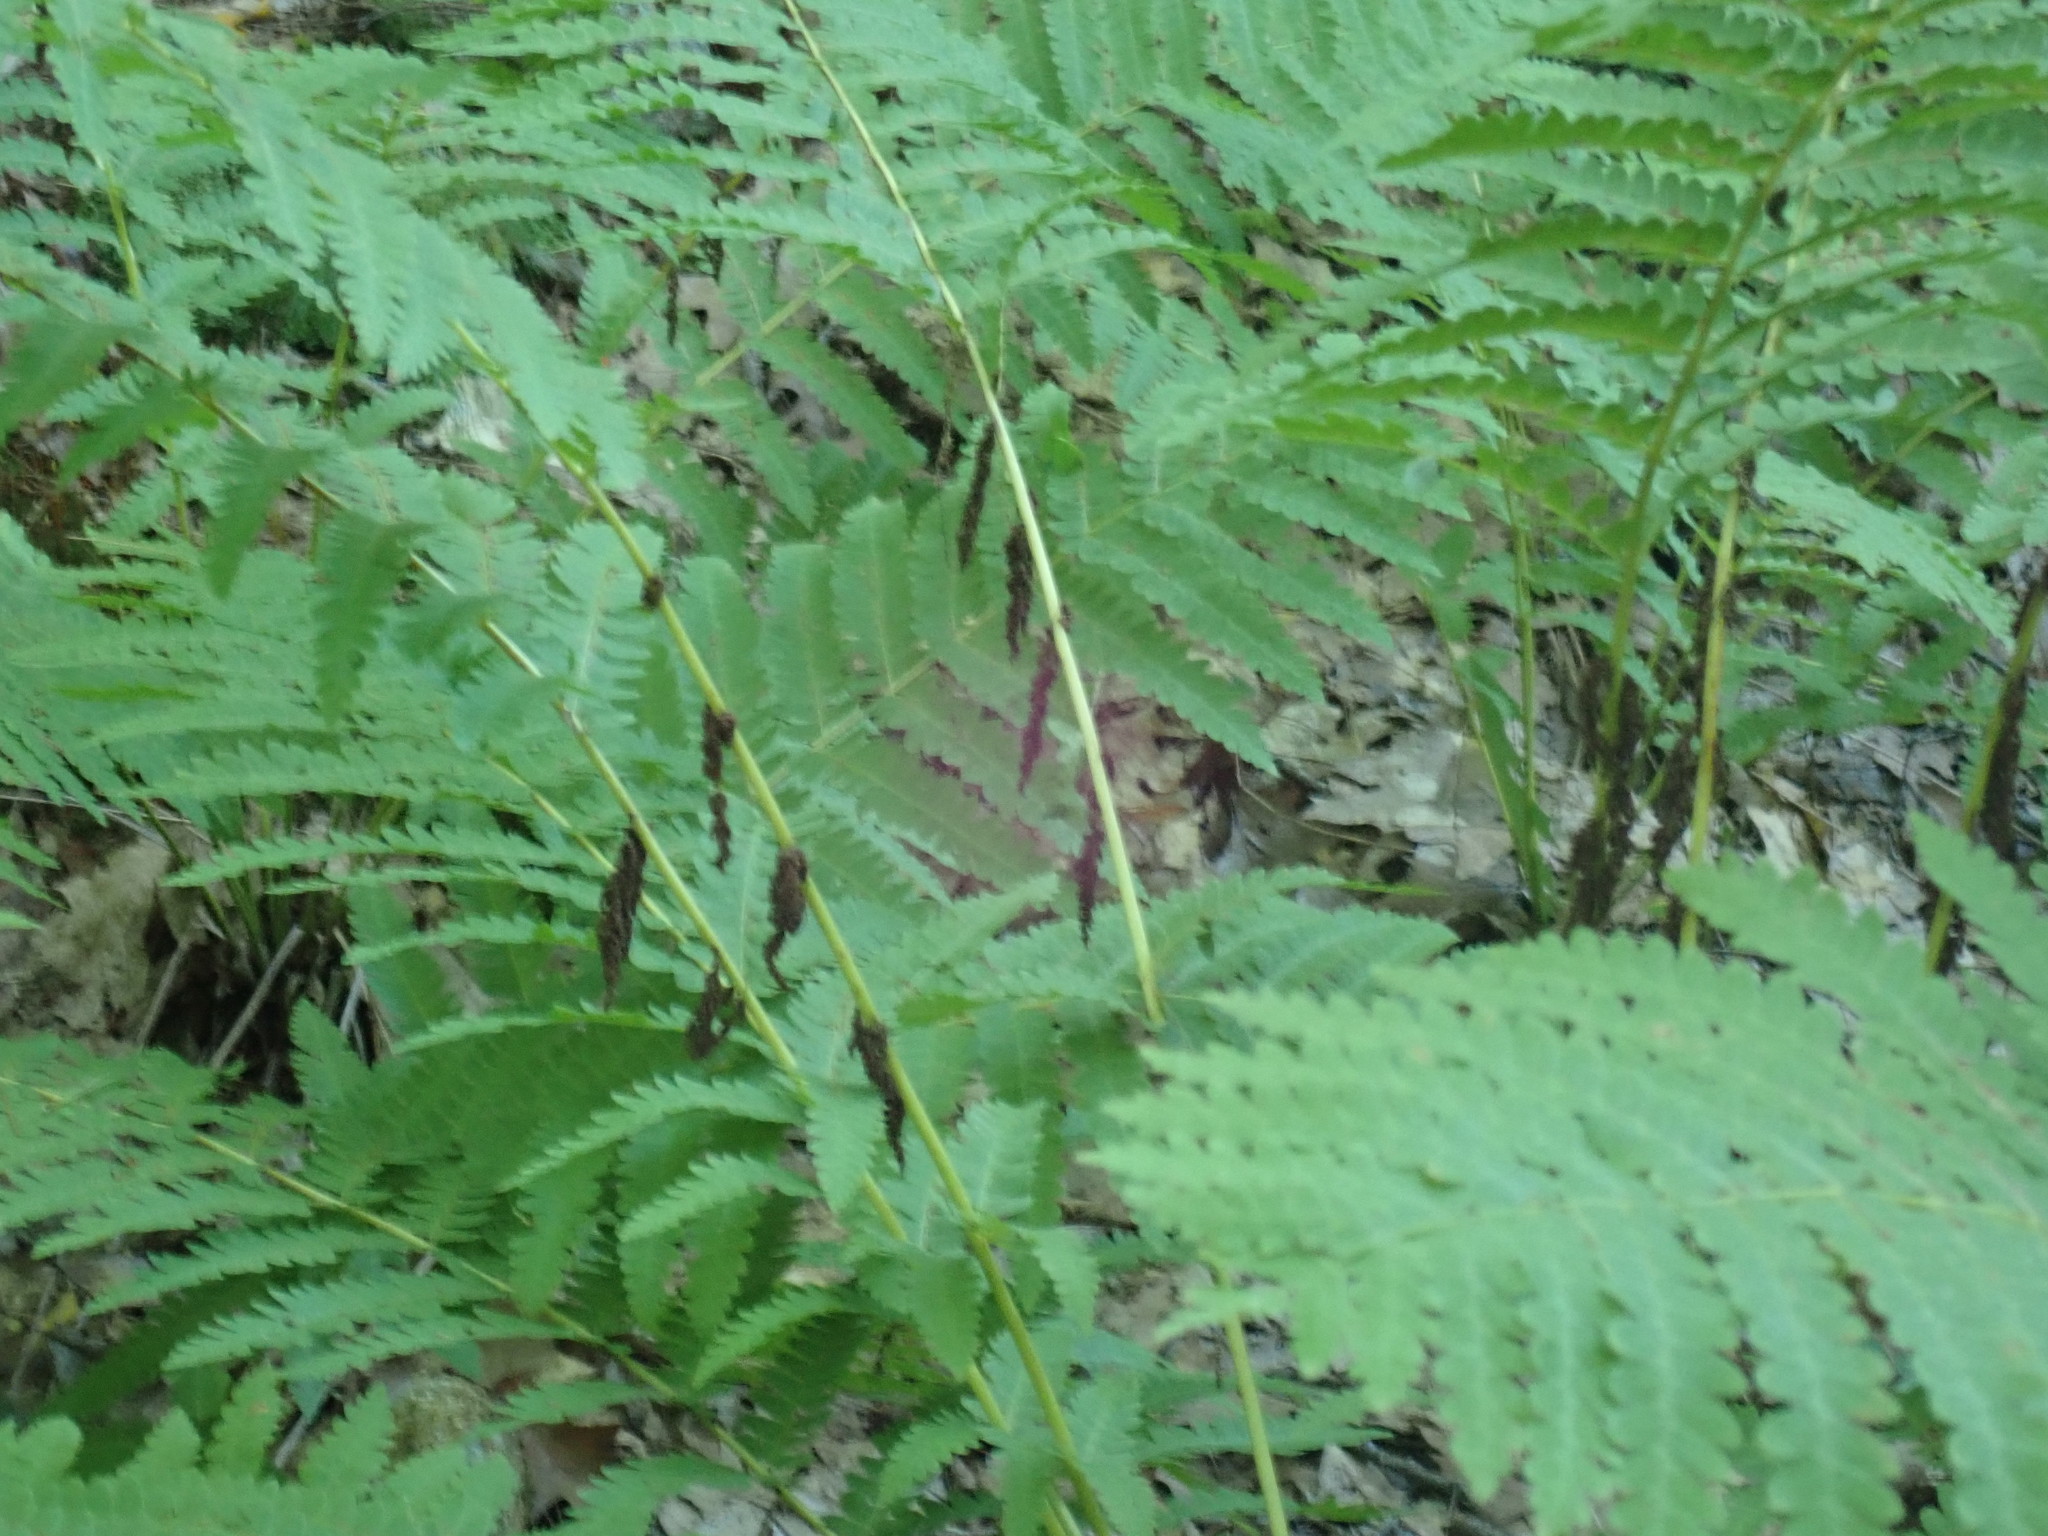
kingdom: Plantae
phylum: Tracheophyta
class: Polypodiopsida
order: Osmundales
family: Osmundaceae
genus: Claytosmunda
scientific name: Claytosmunda claytoniana
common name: Clayton's fern
